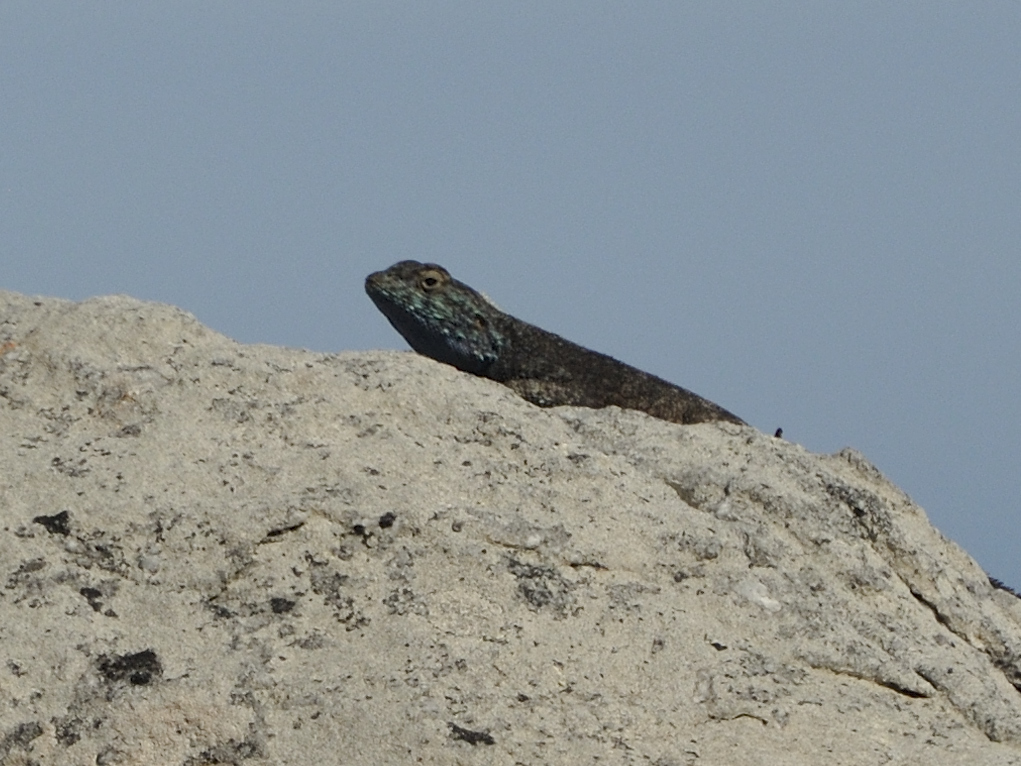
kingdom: Animalia
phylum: Chordata
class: Squamata
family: Agamidae
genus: Agama
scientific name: Agama atra
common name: Southern african rock agama
